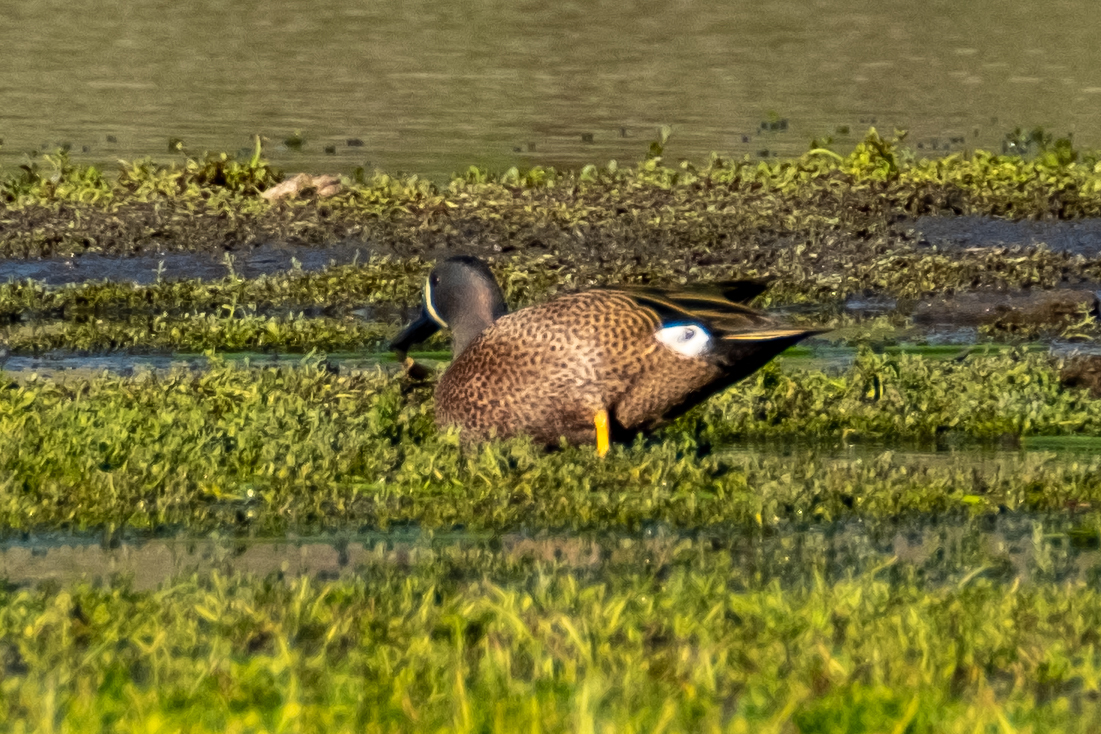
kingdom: Animalia
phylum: Chordata
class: Aves
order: Anseriformes
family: Anatidae
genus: Spatula
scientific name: Spatula discors
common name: Blue-winged teal
